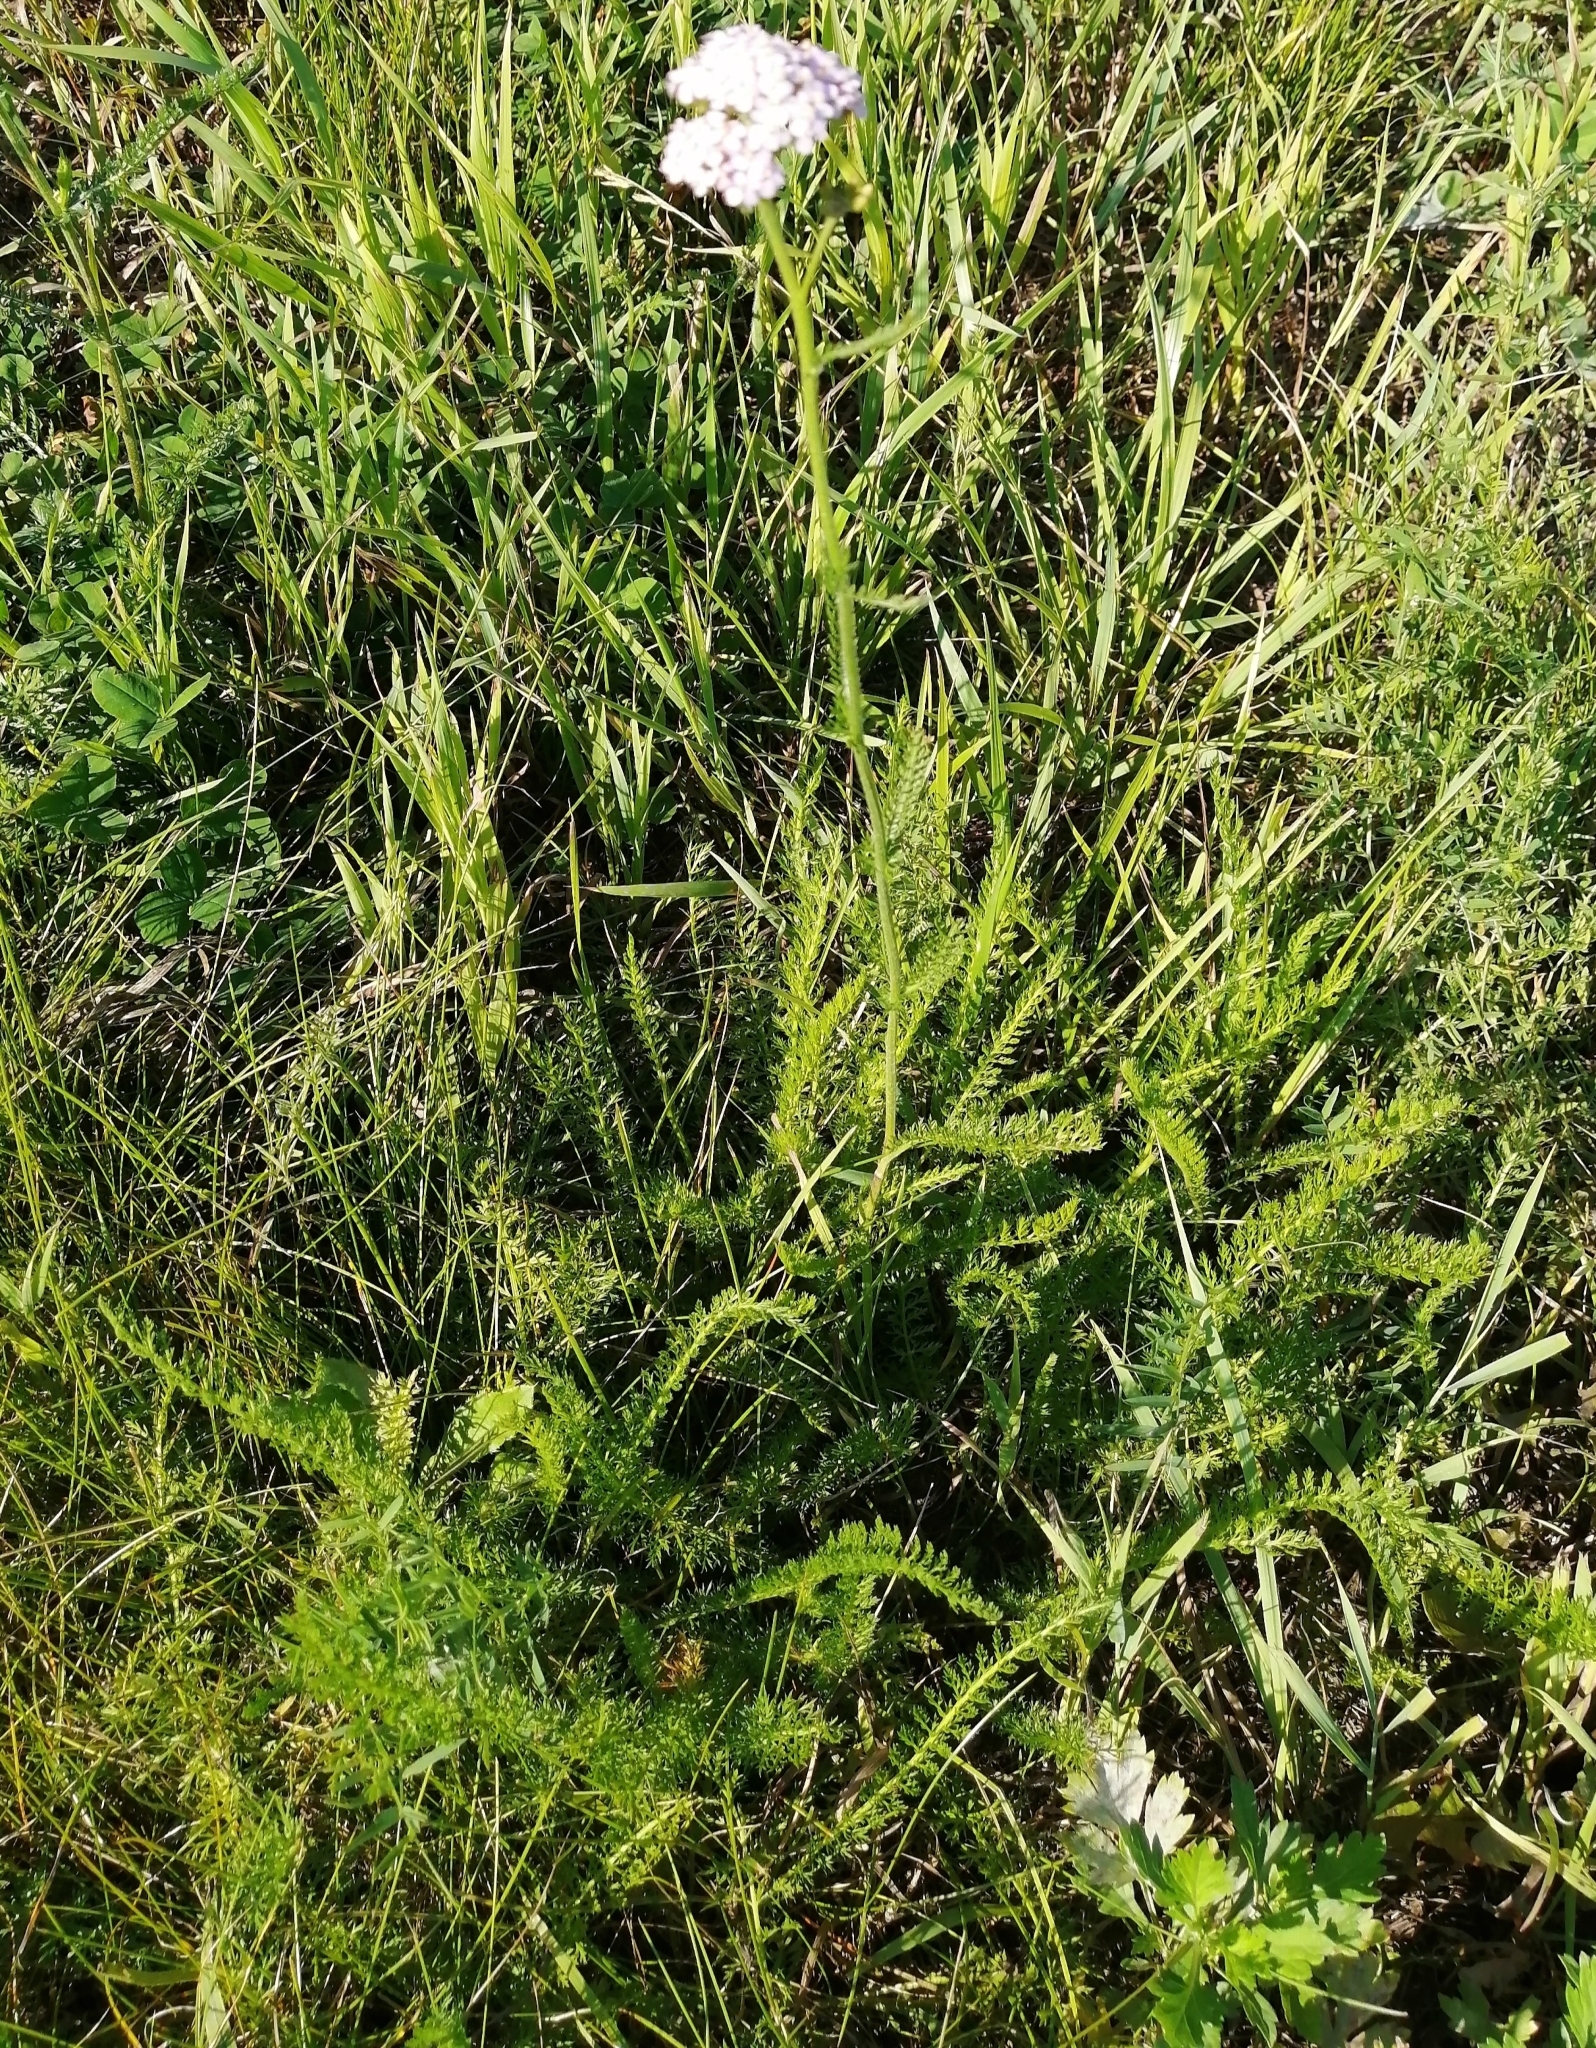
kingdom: Plantae
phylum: Tracheophyta
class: Magnoliopsida
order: Asterales
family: Asteraceae
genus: Achillea
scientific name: Achillea millefolium
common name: Yarrow
